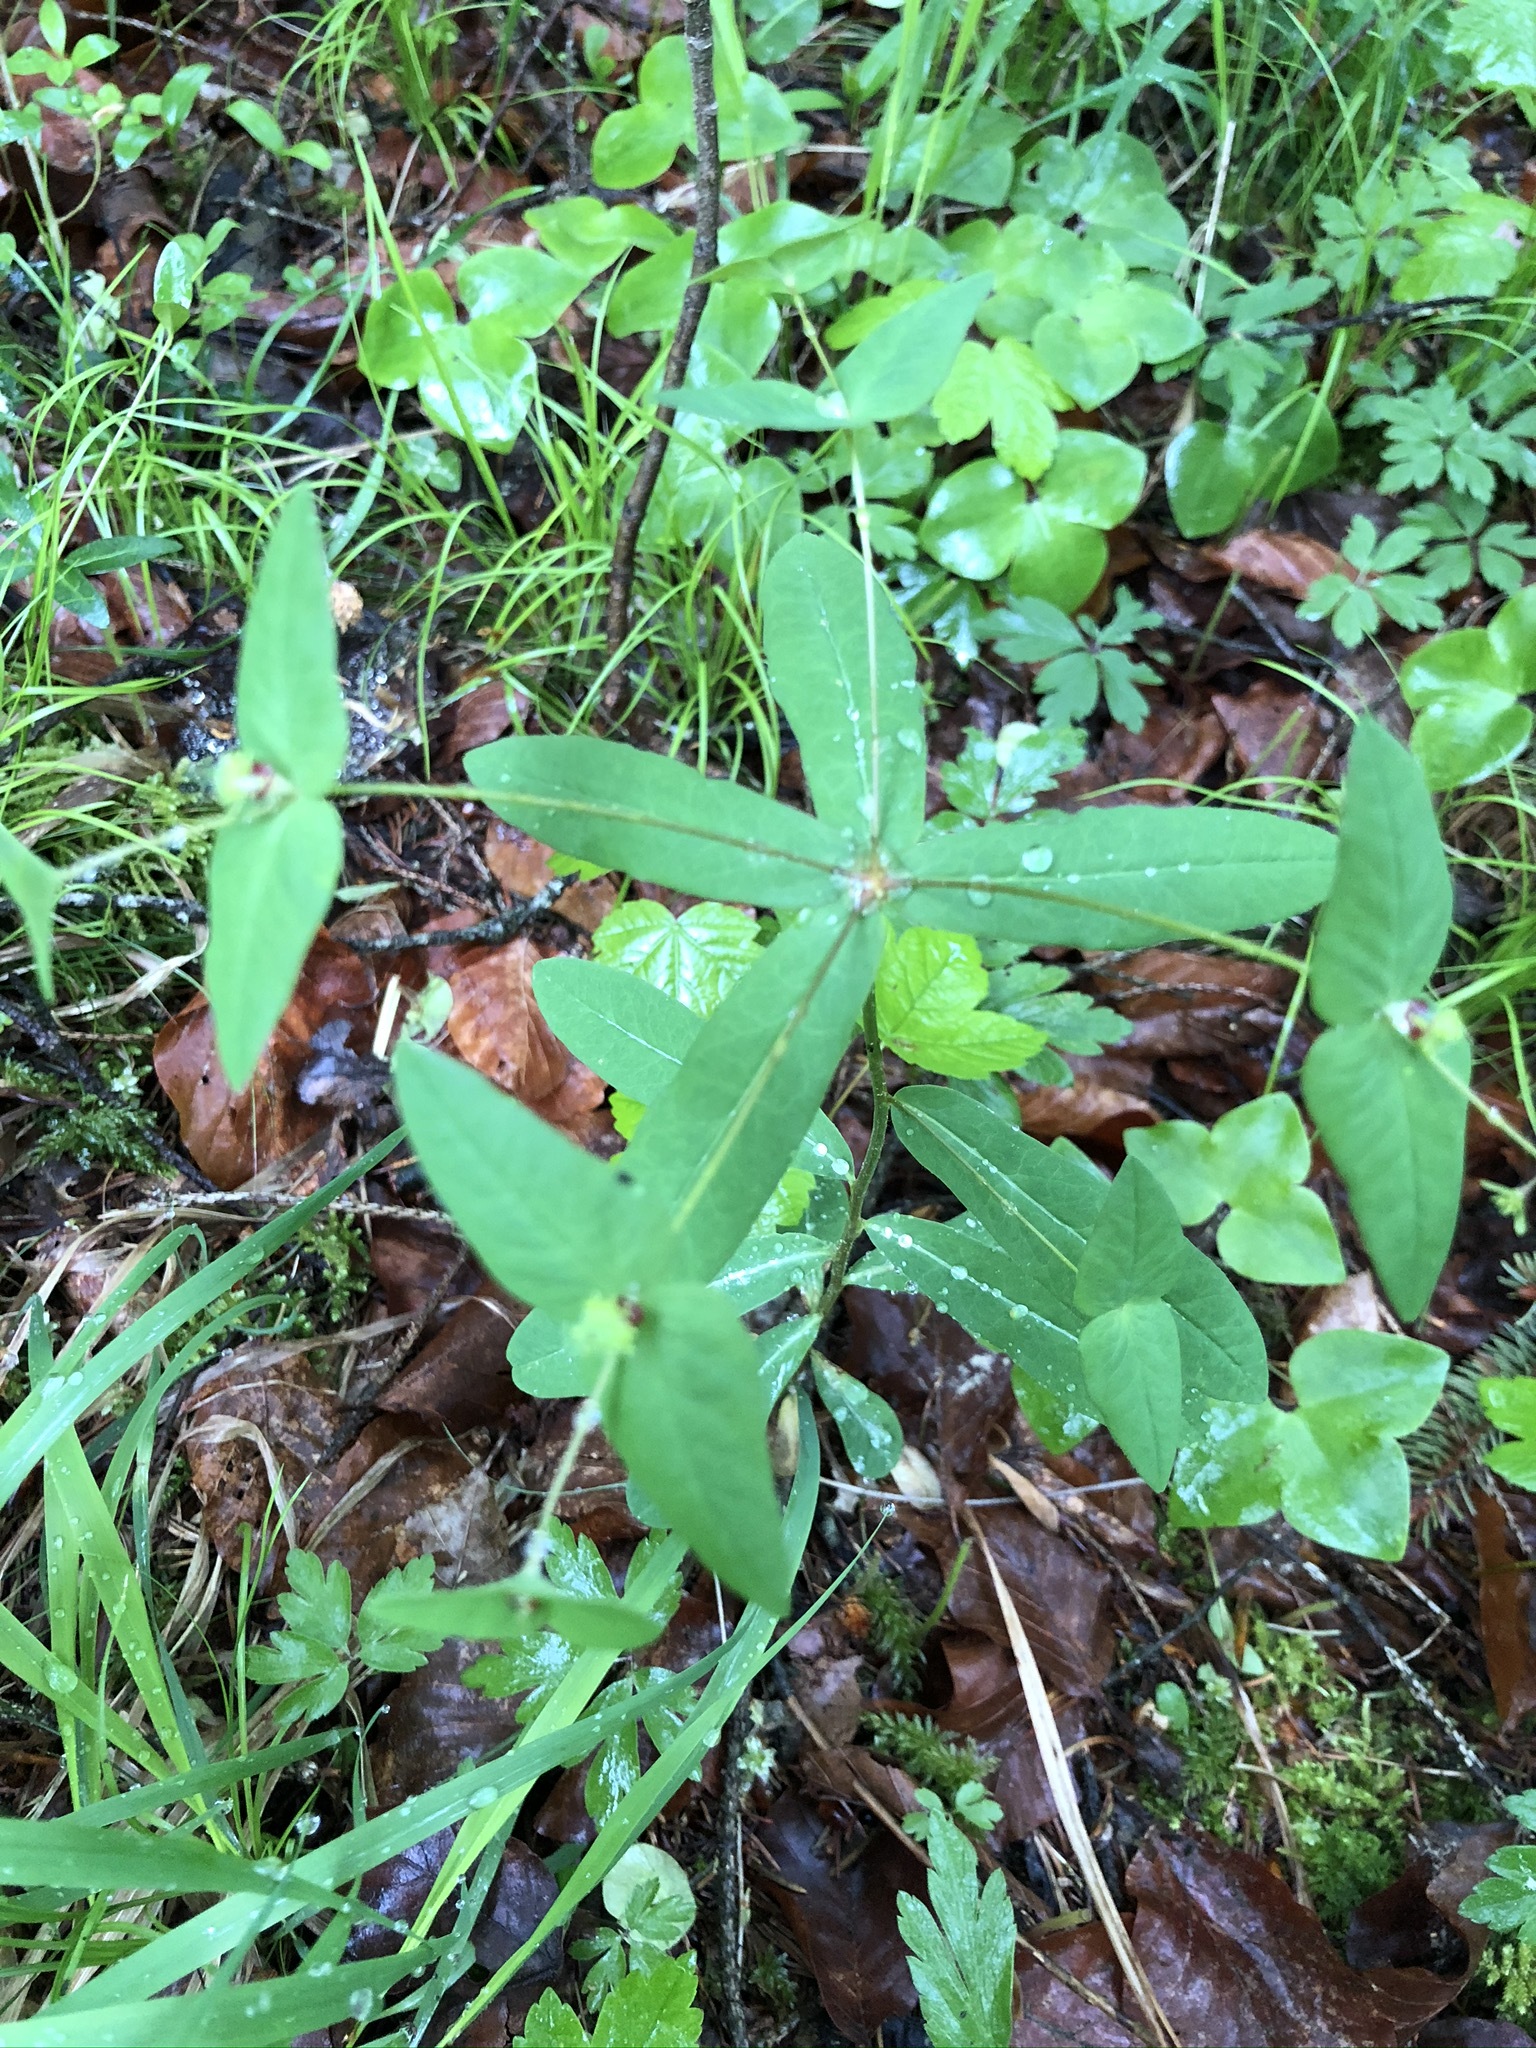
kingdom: Plantae
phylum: Tracheophyta
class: Magnoliopsida
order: Malpighiales
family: Euphorbiaceae
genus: Euphorbia
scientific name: Euphorbia dulcis
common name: Sweet spurge
